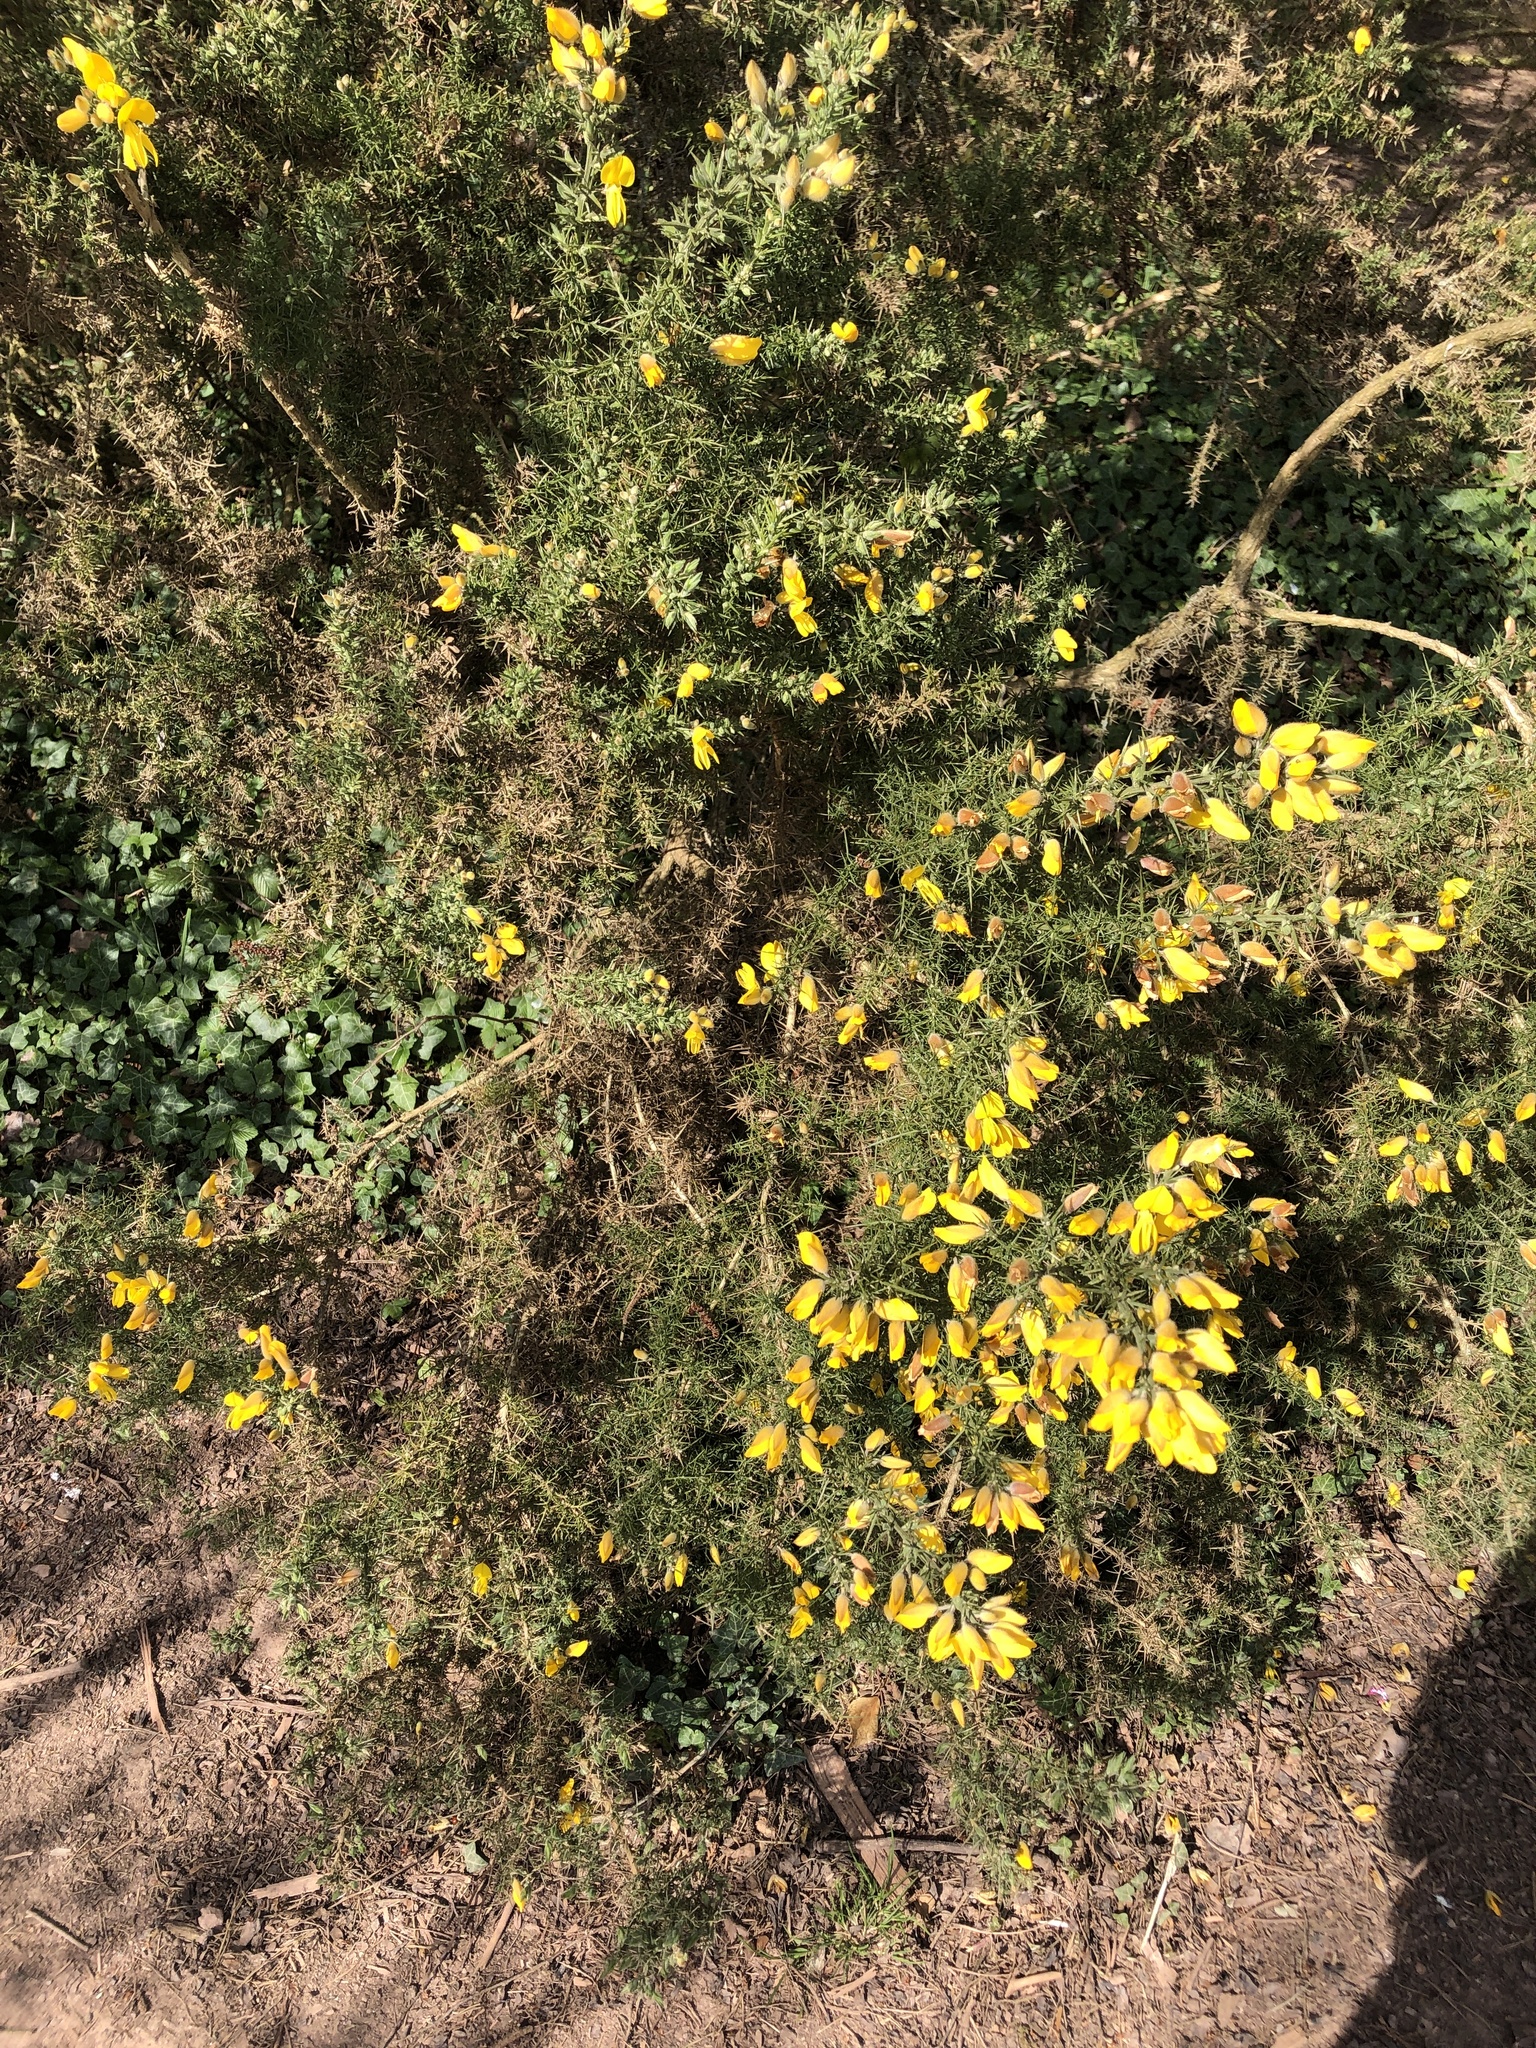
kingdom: Plantae
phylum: Tracheophyta
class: Magnoliopsida
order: Fabales
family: Fabaceae
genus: Ulex
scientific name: Ulex europaeus
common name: Common gorse
